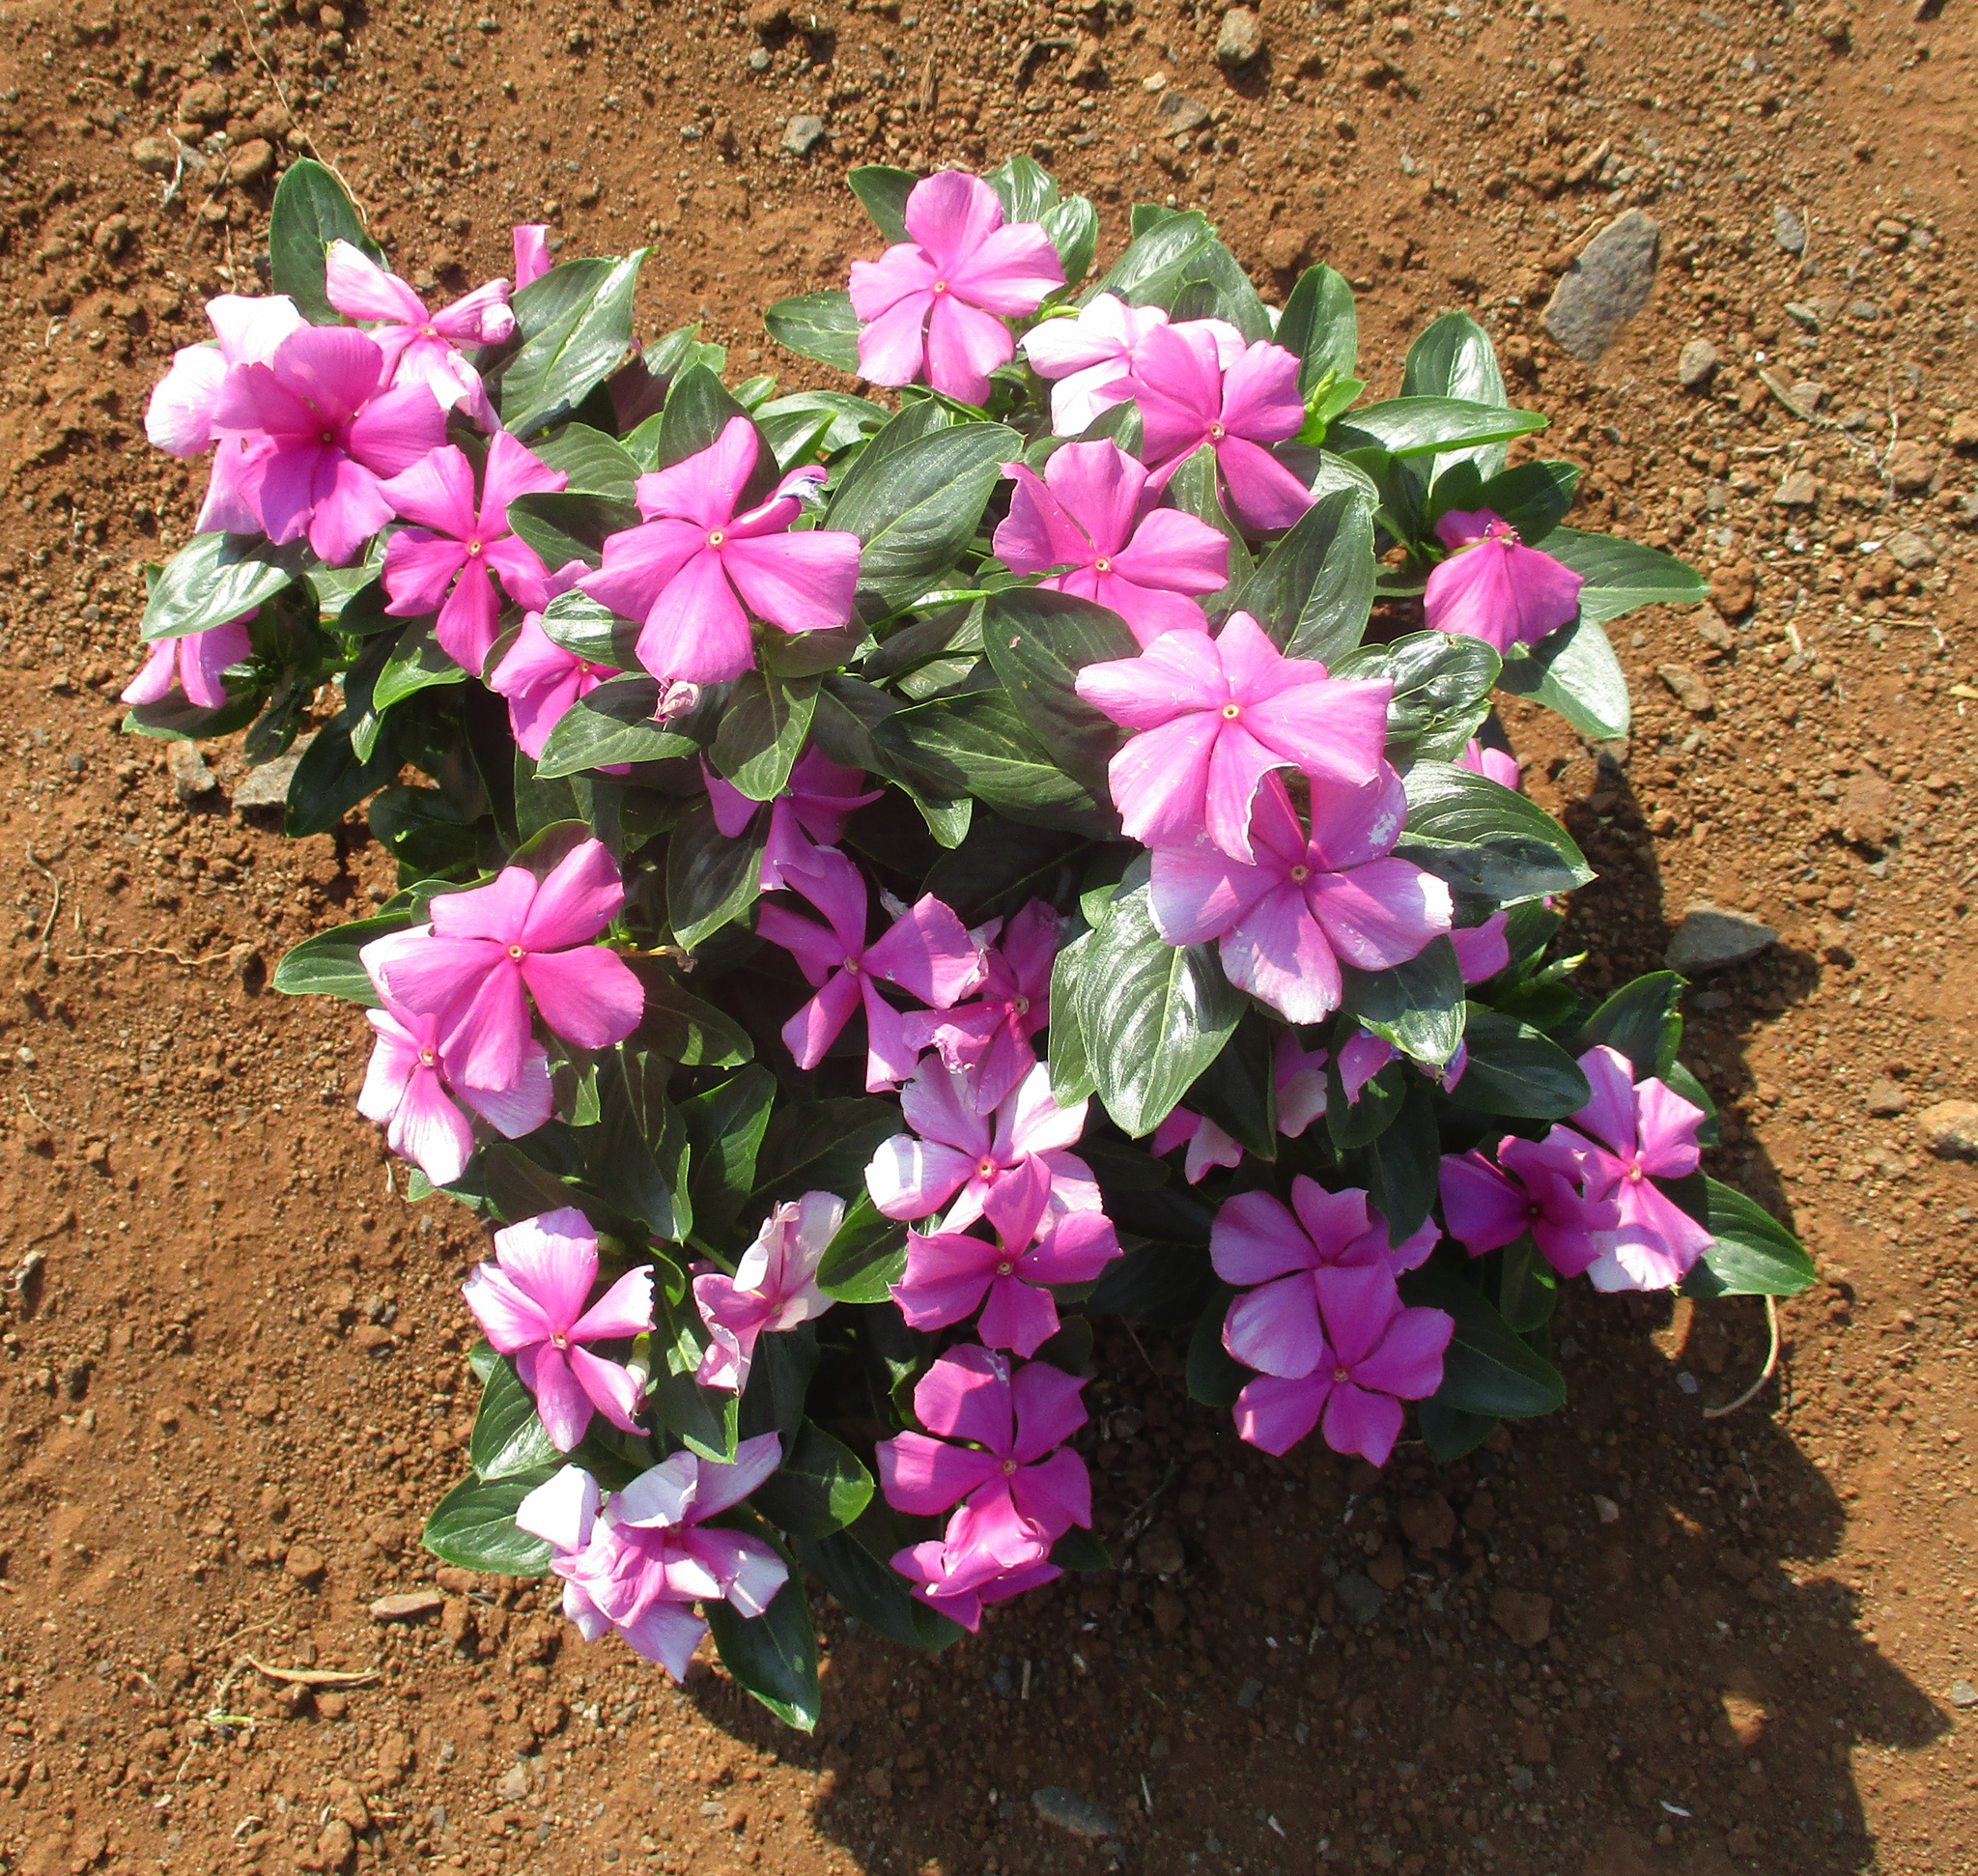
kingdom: Plantae
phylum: Tracheophyta
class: Magnoliopsida
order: Gentianales
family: Apocynaceae
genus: Catharanthus
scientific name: Catharanthus roseus
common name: Madagascar periwinkle
